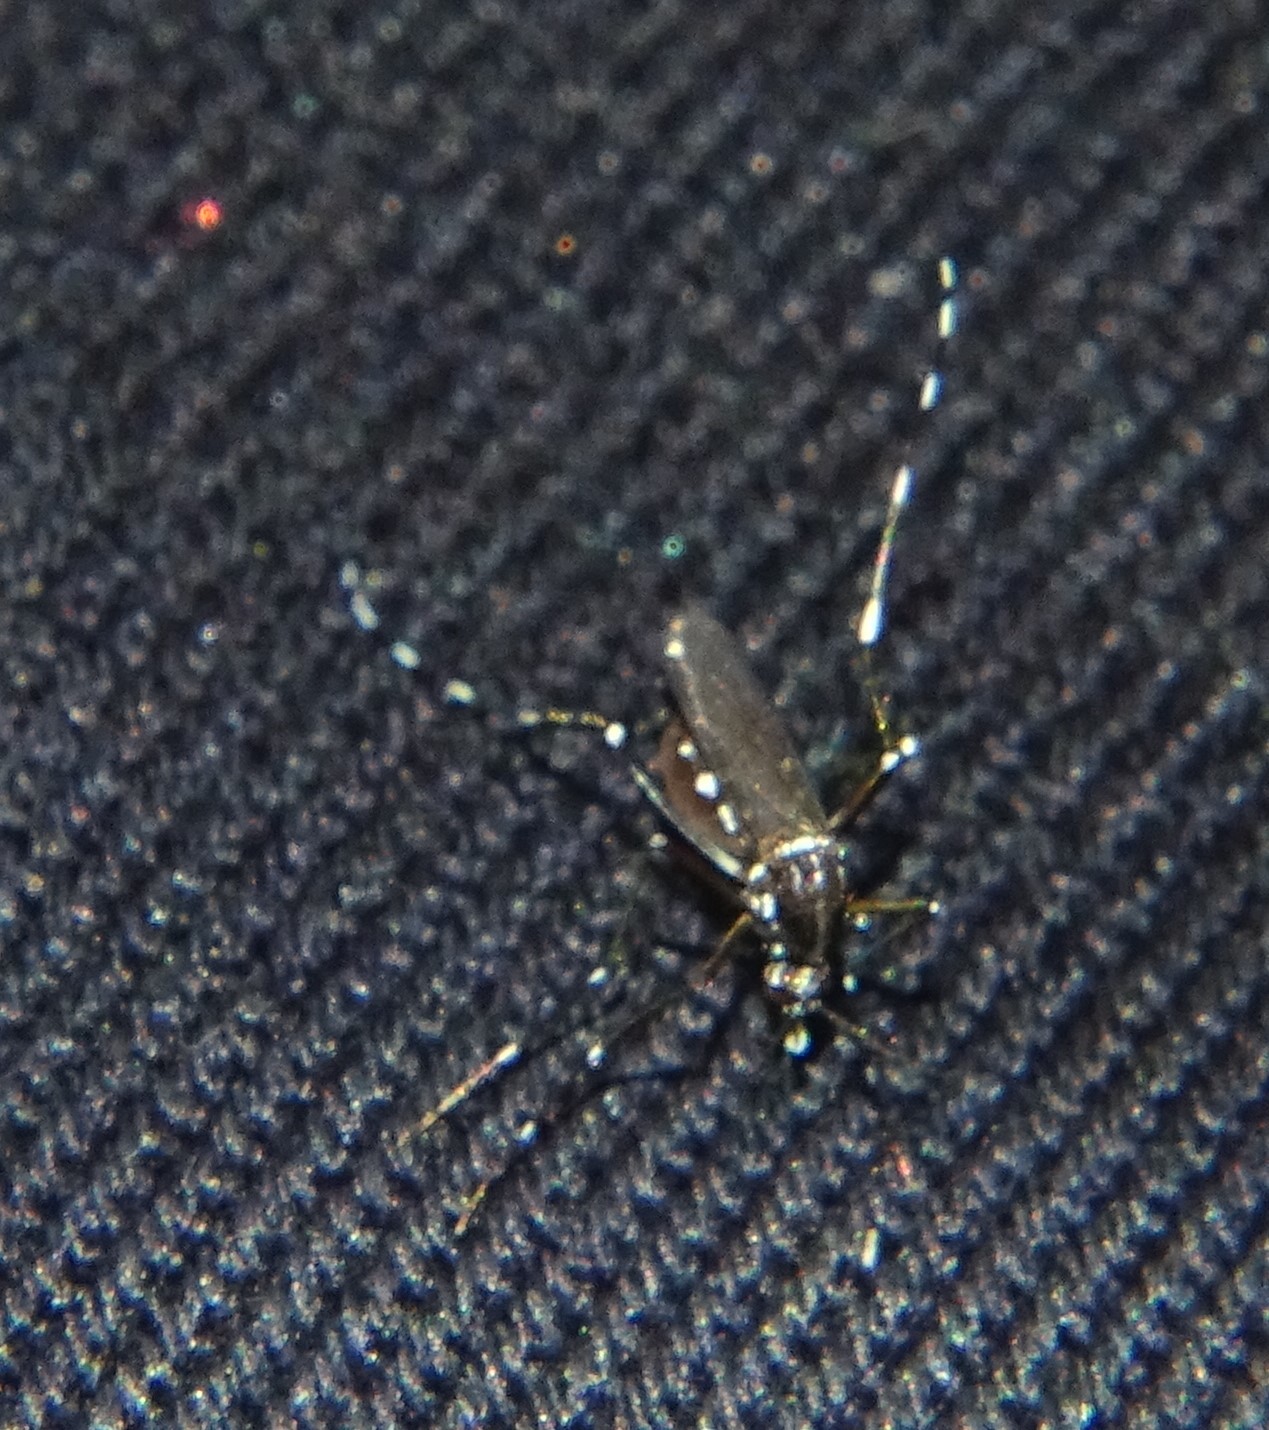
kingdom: Animalia
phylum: Arthropoda
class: Insecta
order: Diptera
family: Culicidae
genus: Aedes
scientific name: Aedes albopictus
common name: Tiger mosquito
